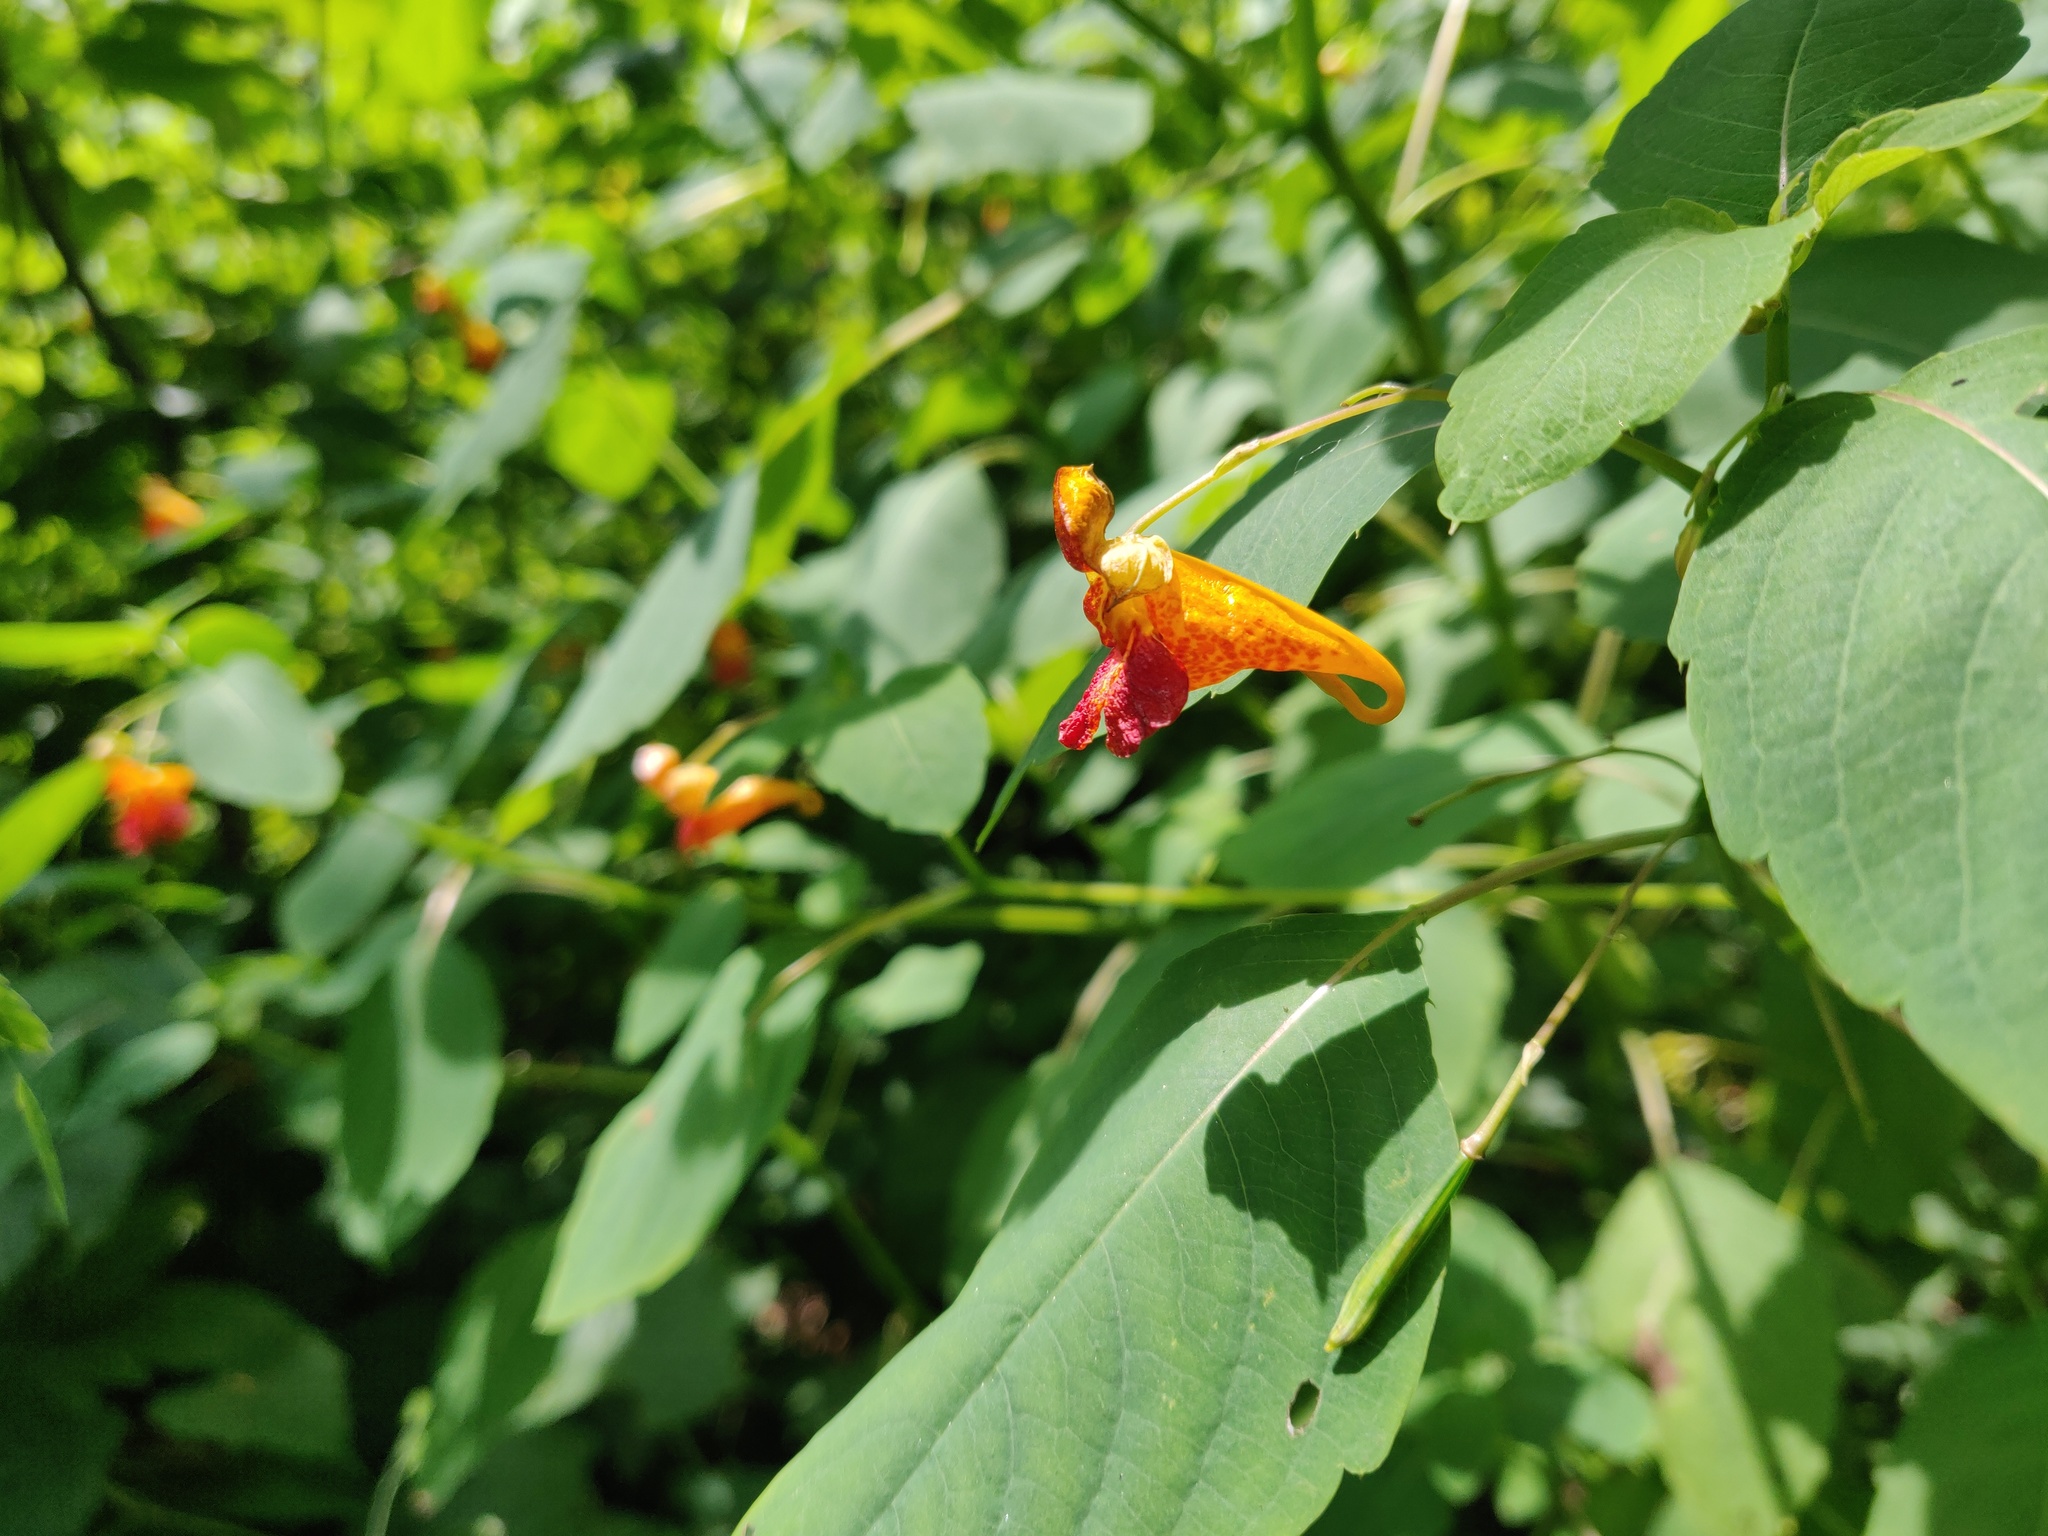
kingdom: Plantae
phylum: Tracheophyta
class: Magnoliopsida
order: Ericales
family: Balsaminaceae
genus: Impatiens
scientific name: Impatiens capensis
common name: Orange balsam
